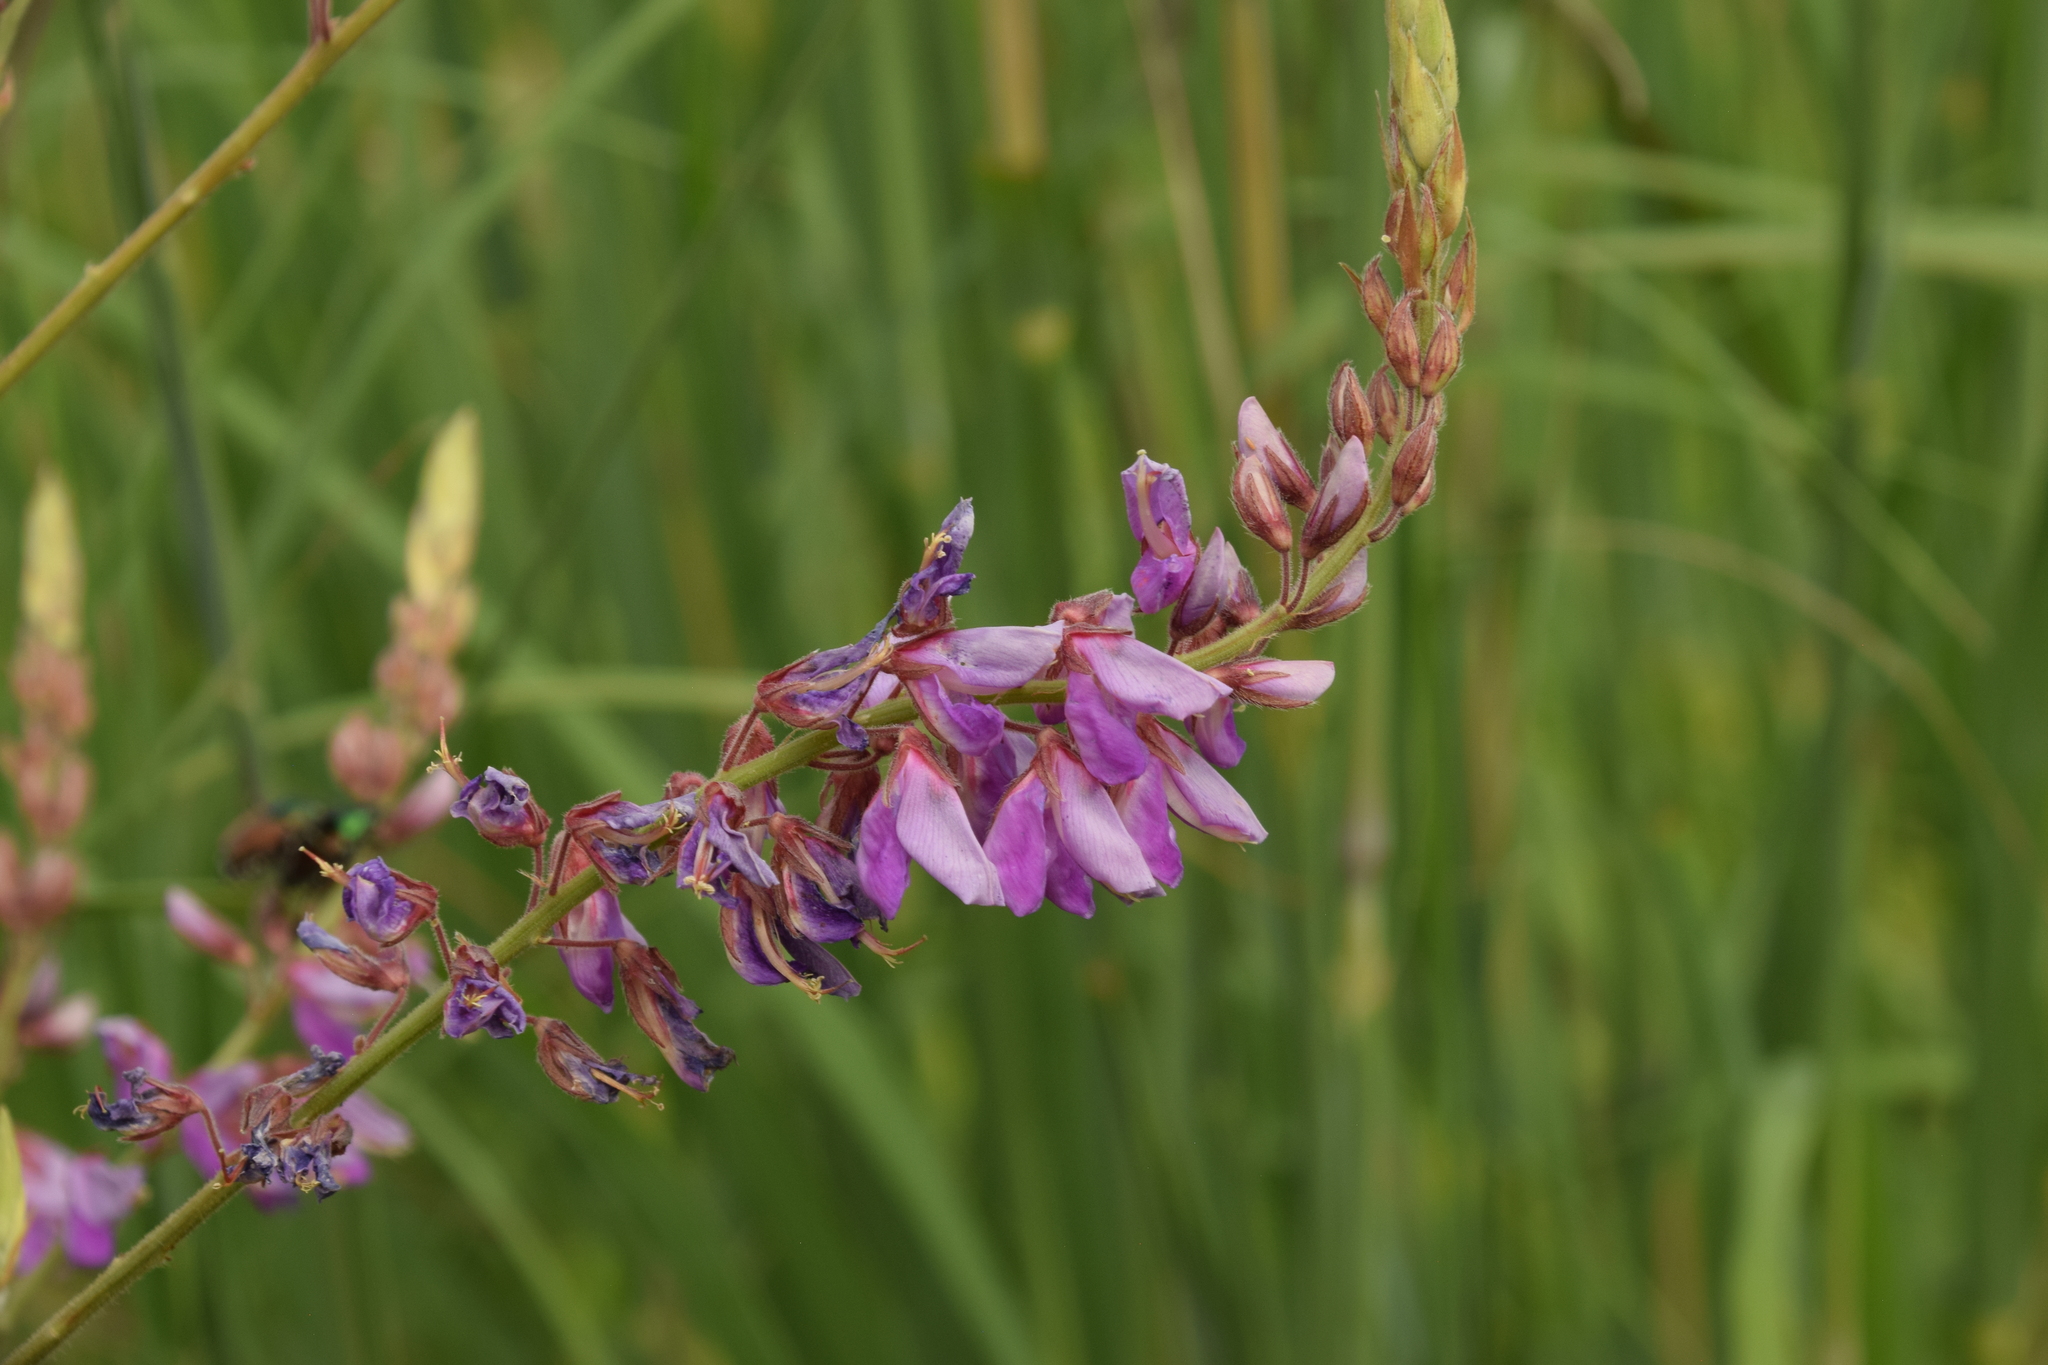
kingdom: Plantae
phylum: Tracheophyta
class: Magnoliopsida
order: Fabales
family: Fabaceae
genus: Desmodium
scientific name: Desmodium canadense
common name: Canada tick-trefoil
